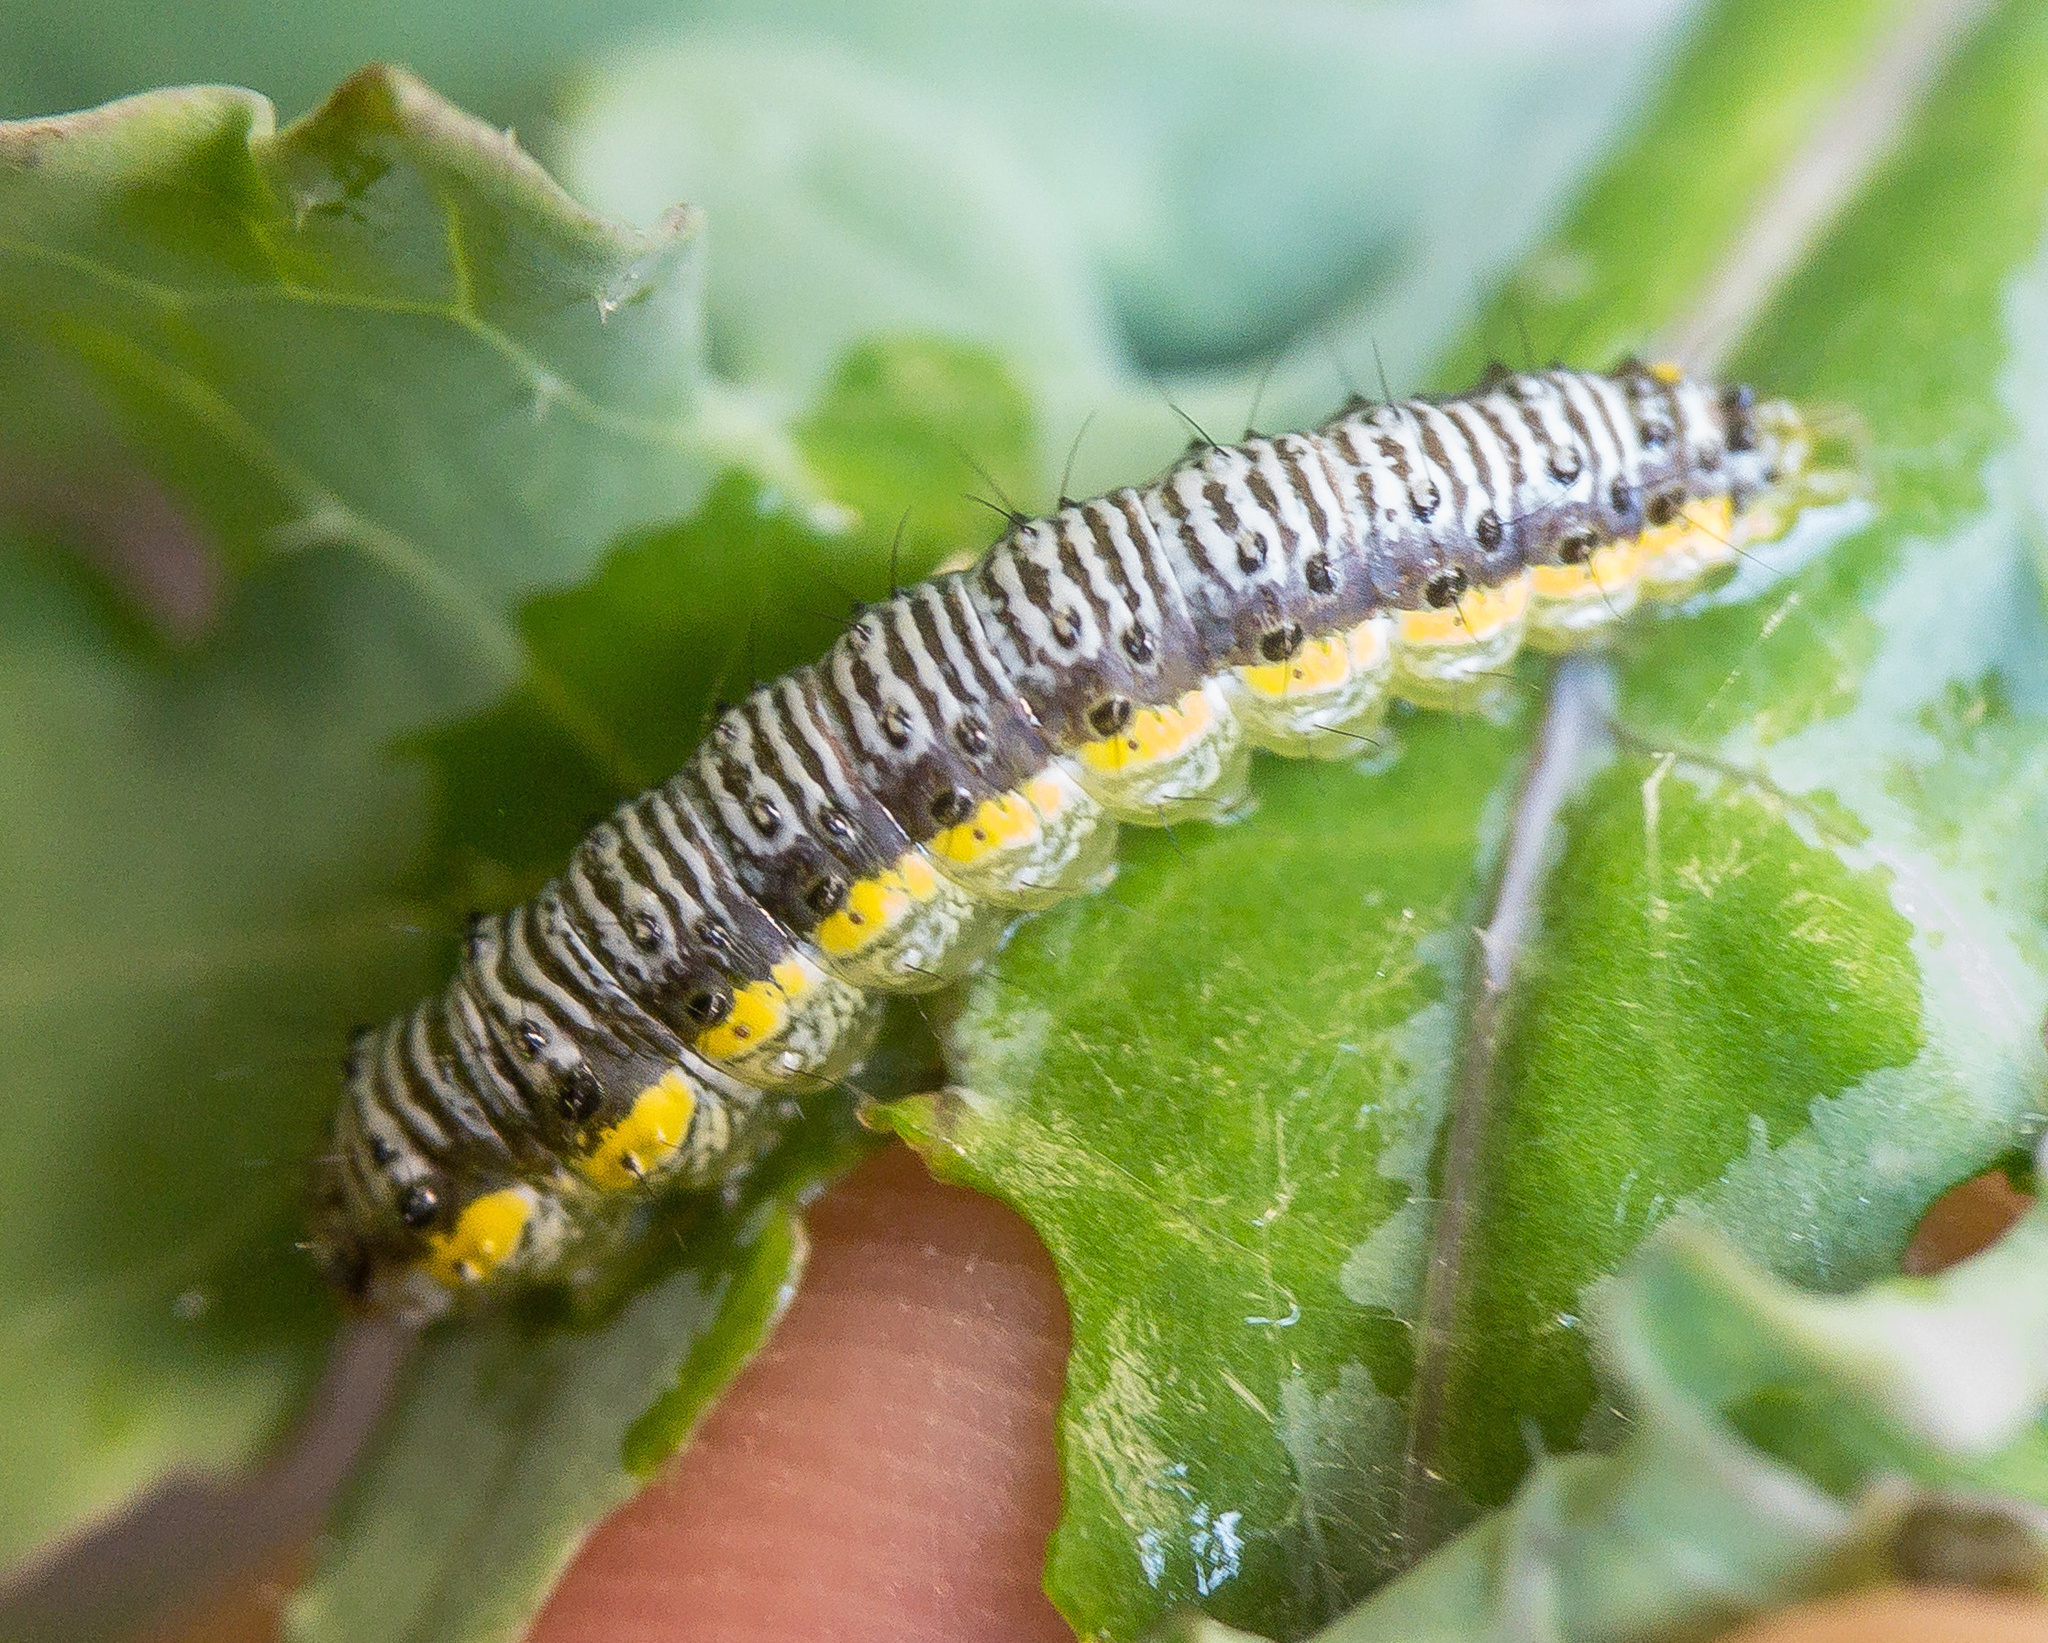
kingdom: Animalia
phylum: Arthropoda
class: Insecta
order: Lepidoptera
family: Crambidae
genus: Evergestis
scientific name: Evergestis rimosalis
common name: Cross-striped cabbageworm moth
